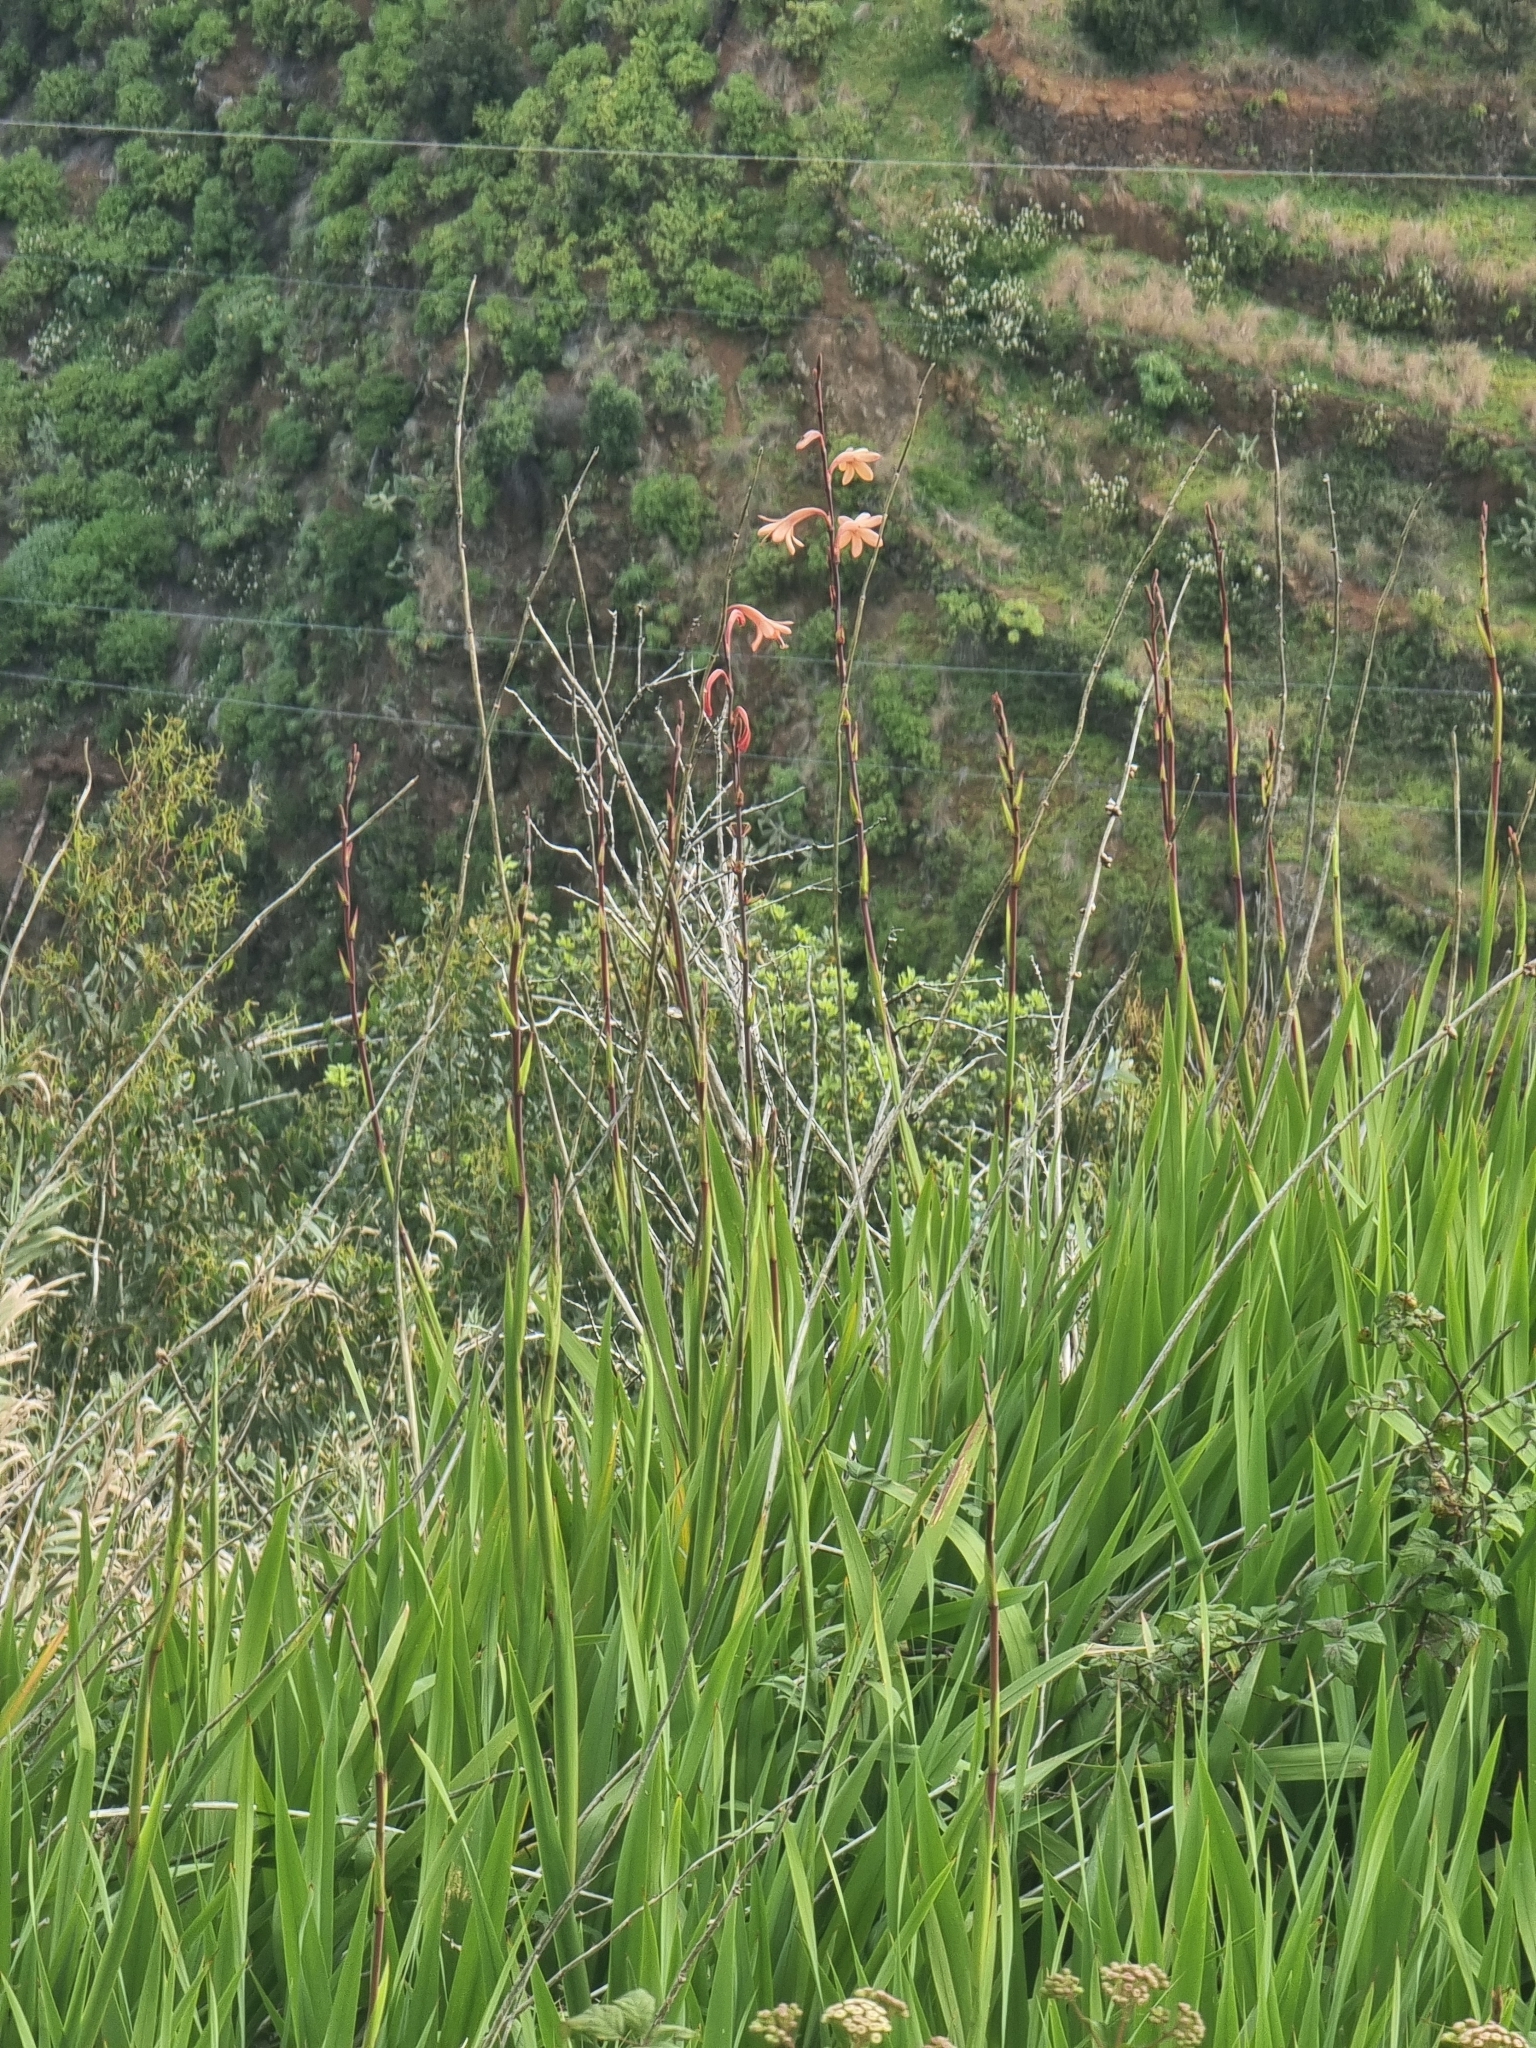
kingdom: Plantae
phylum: Tracheophyta
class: Liliopsida
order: Asparagales
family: Iridaceae
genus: Watsonia
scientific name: Watsonia meriana
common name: Bulbil bugle-lily
